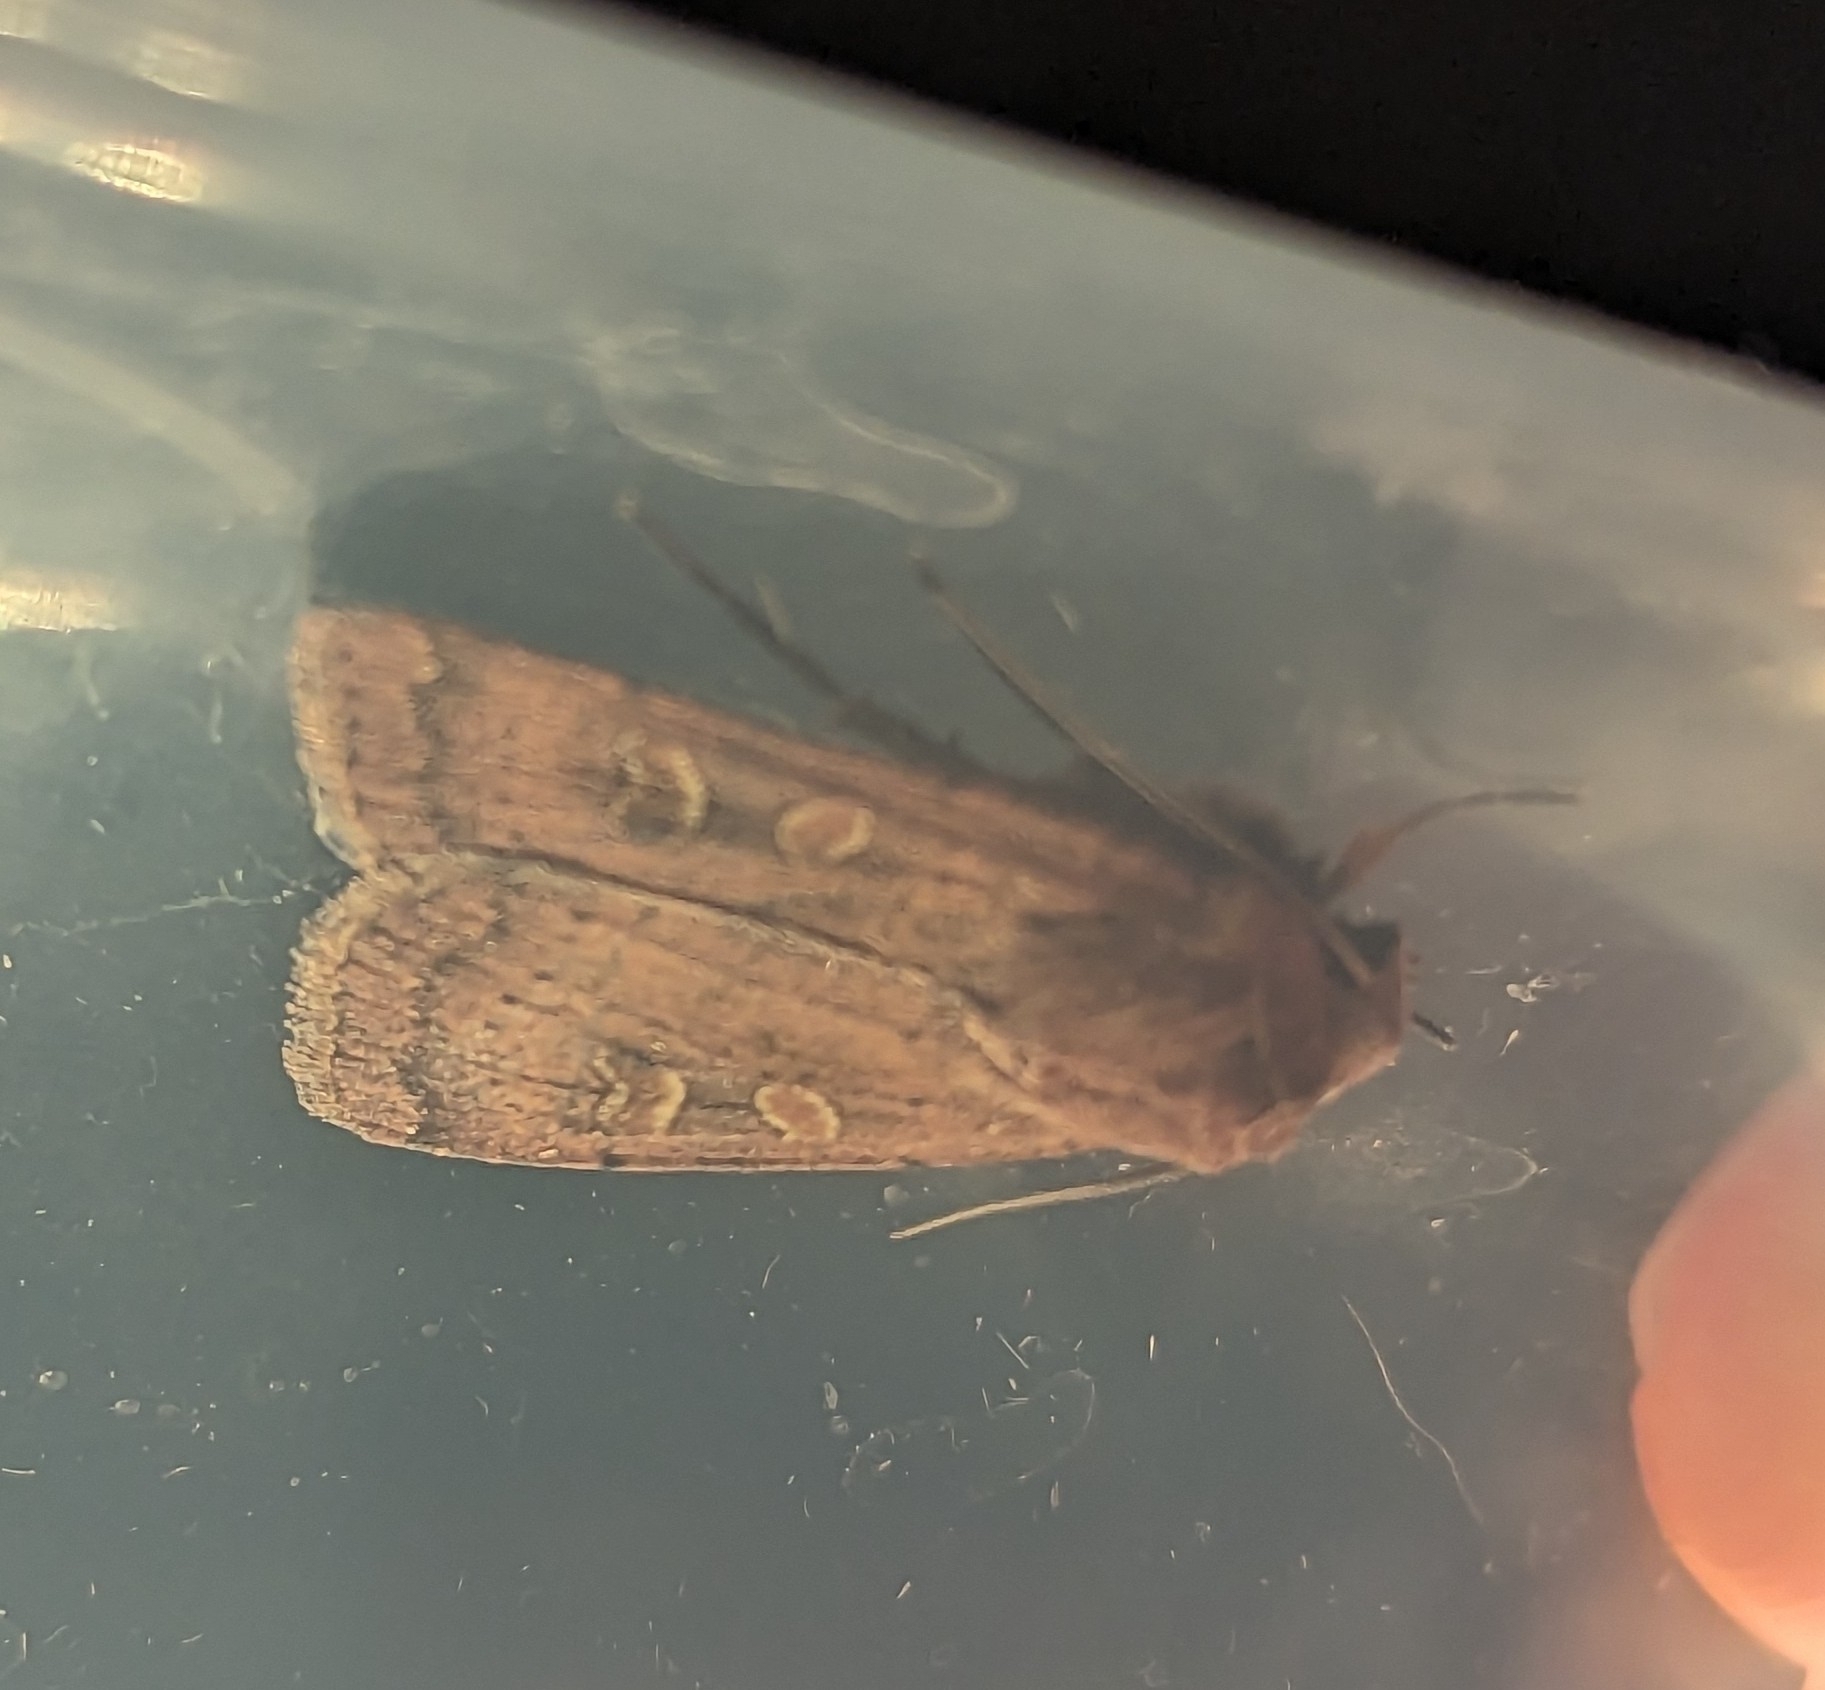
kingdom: Animalia
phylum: Arthropoda
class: Insecta
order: Lepidoptera
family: Noctuidae
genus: Xestia
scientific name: Xestia xanthographa
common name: Square-spot rustic
